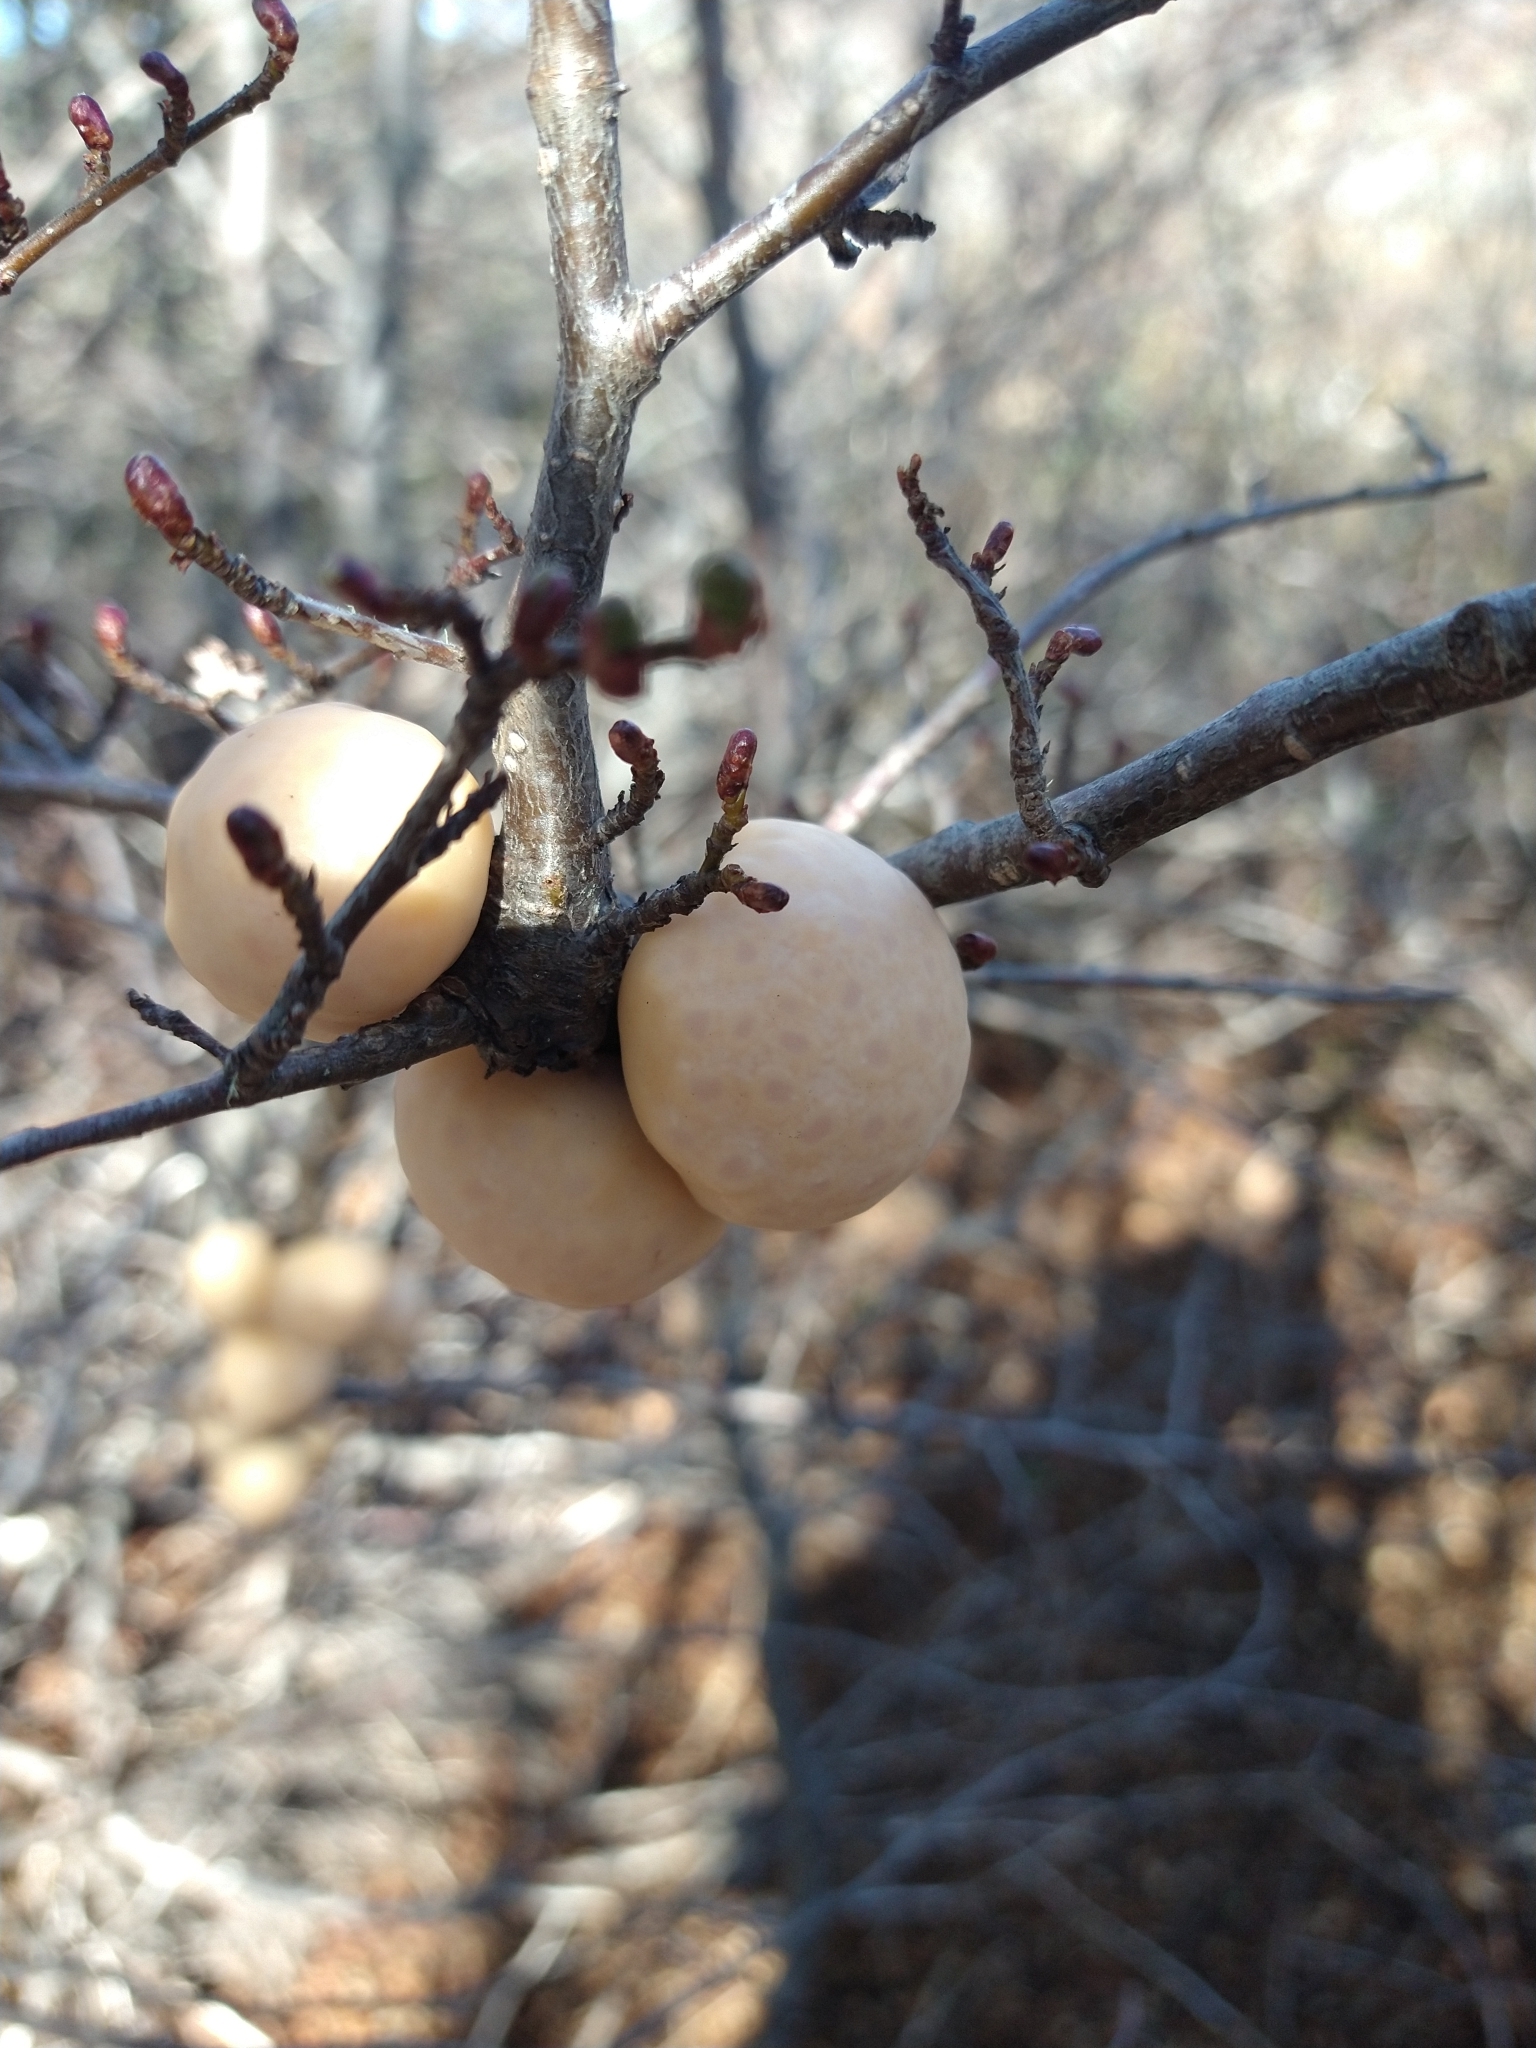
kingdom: Fungi
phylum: Ascomycota
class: Leotiomycetes
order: Cyttariales
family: Cyttariaceae
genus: Cyttaria
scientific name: Cyttaria darwinii
